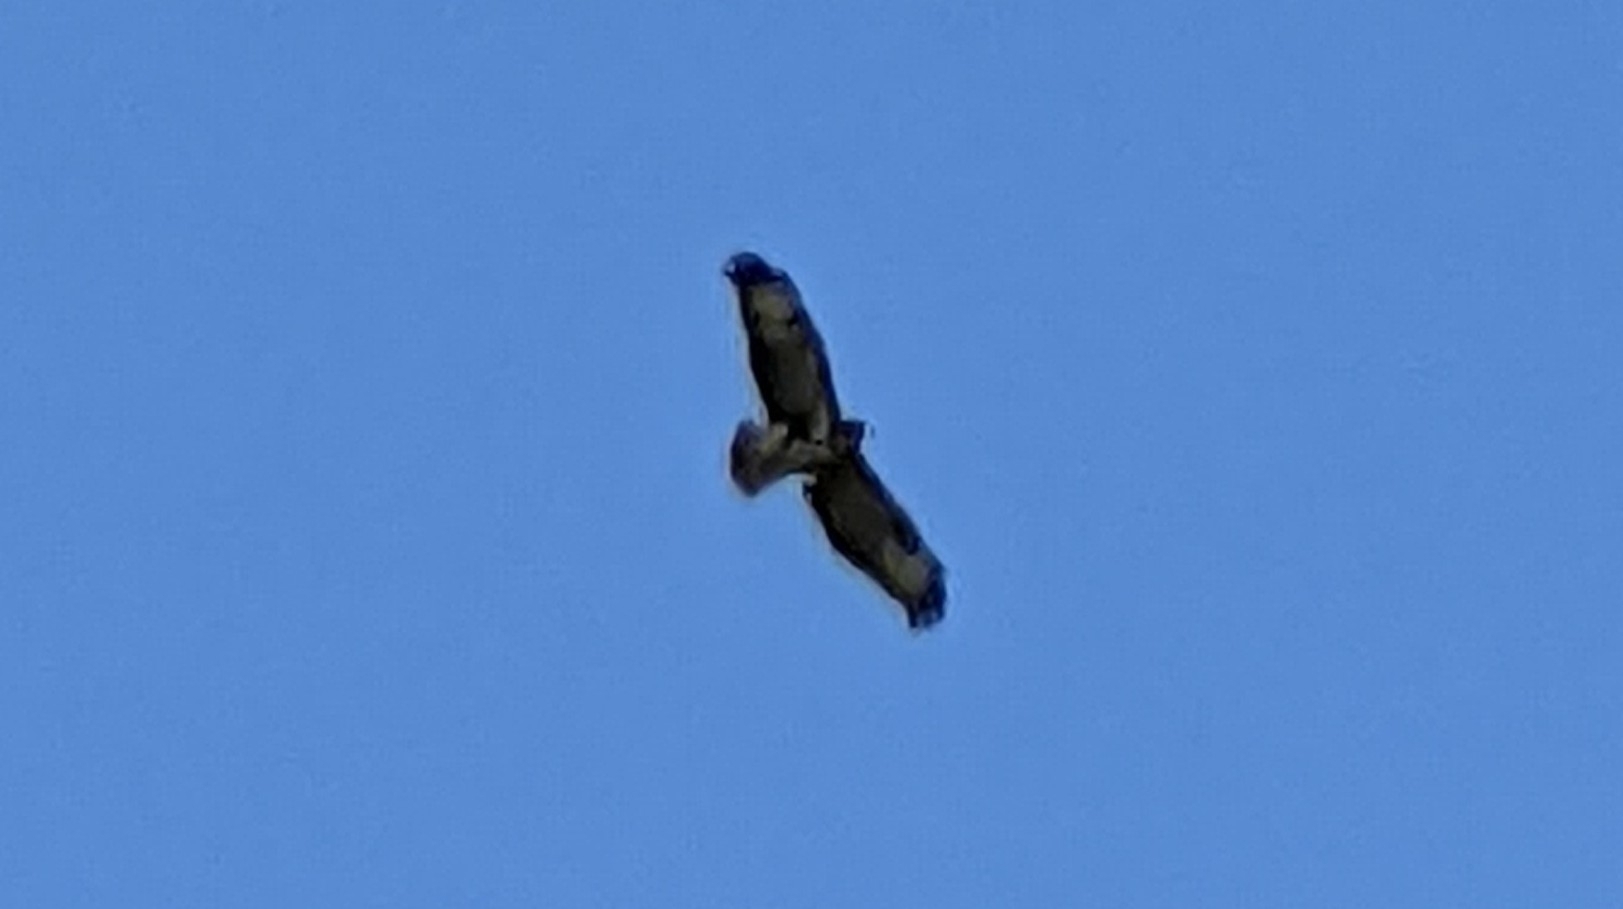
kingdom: Animalia
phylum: Chordata
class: Aves
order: Accipitriformes
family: Accipitridae
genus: Buteo
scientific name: Buteo buteo
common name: Common buzzard
